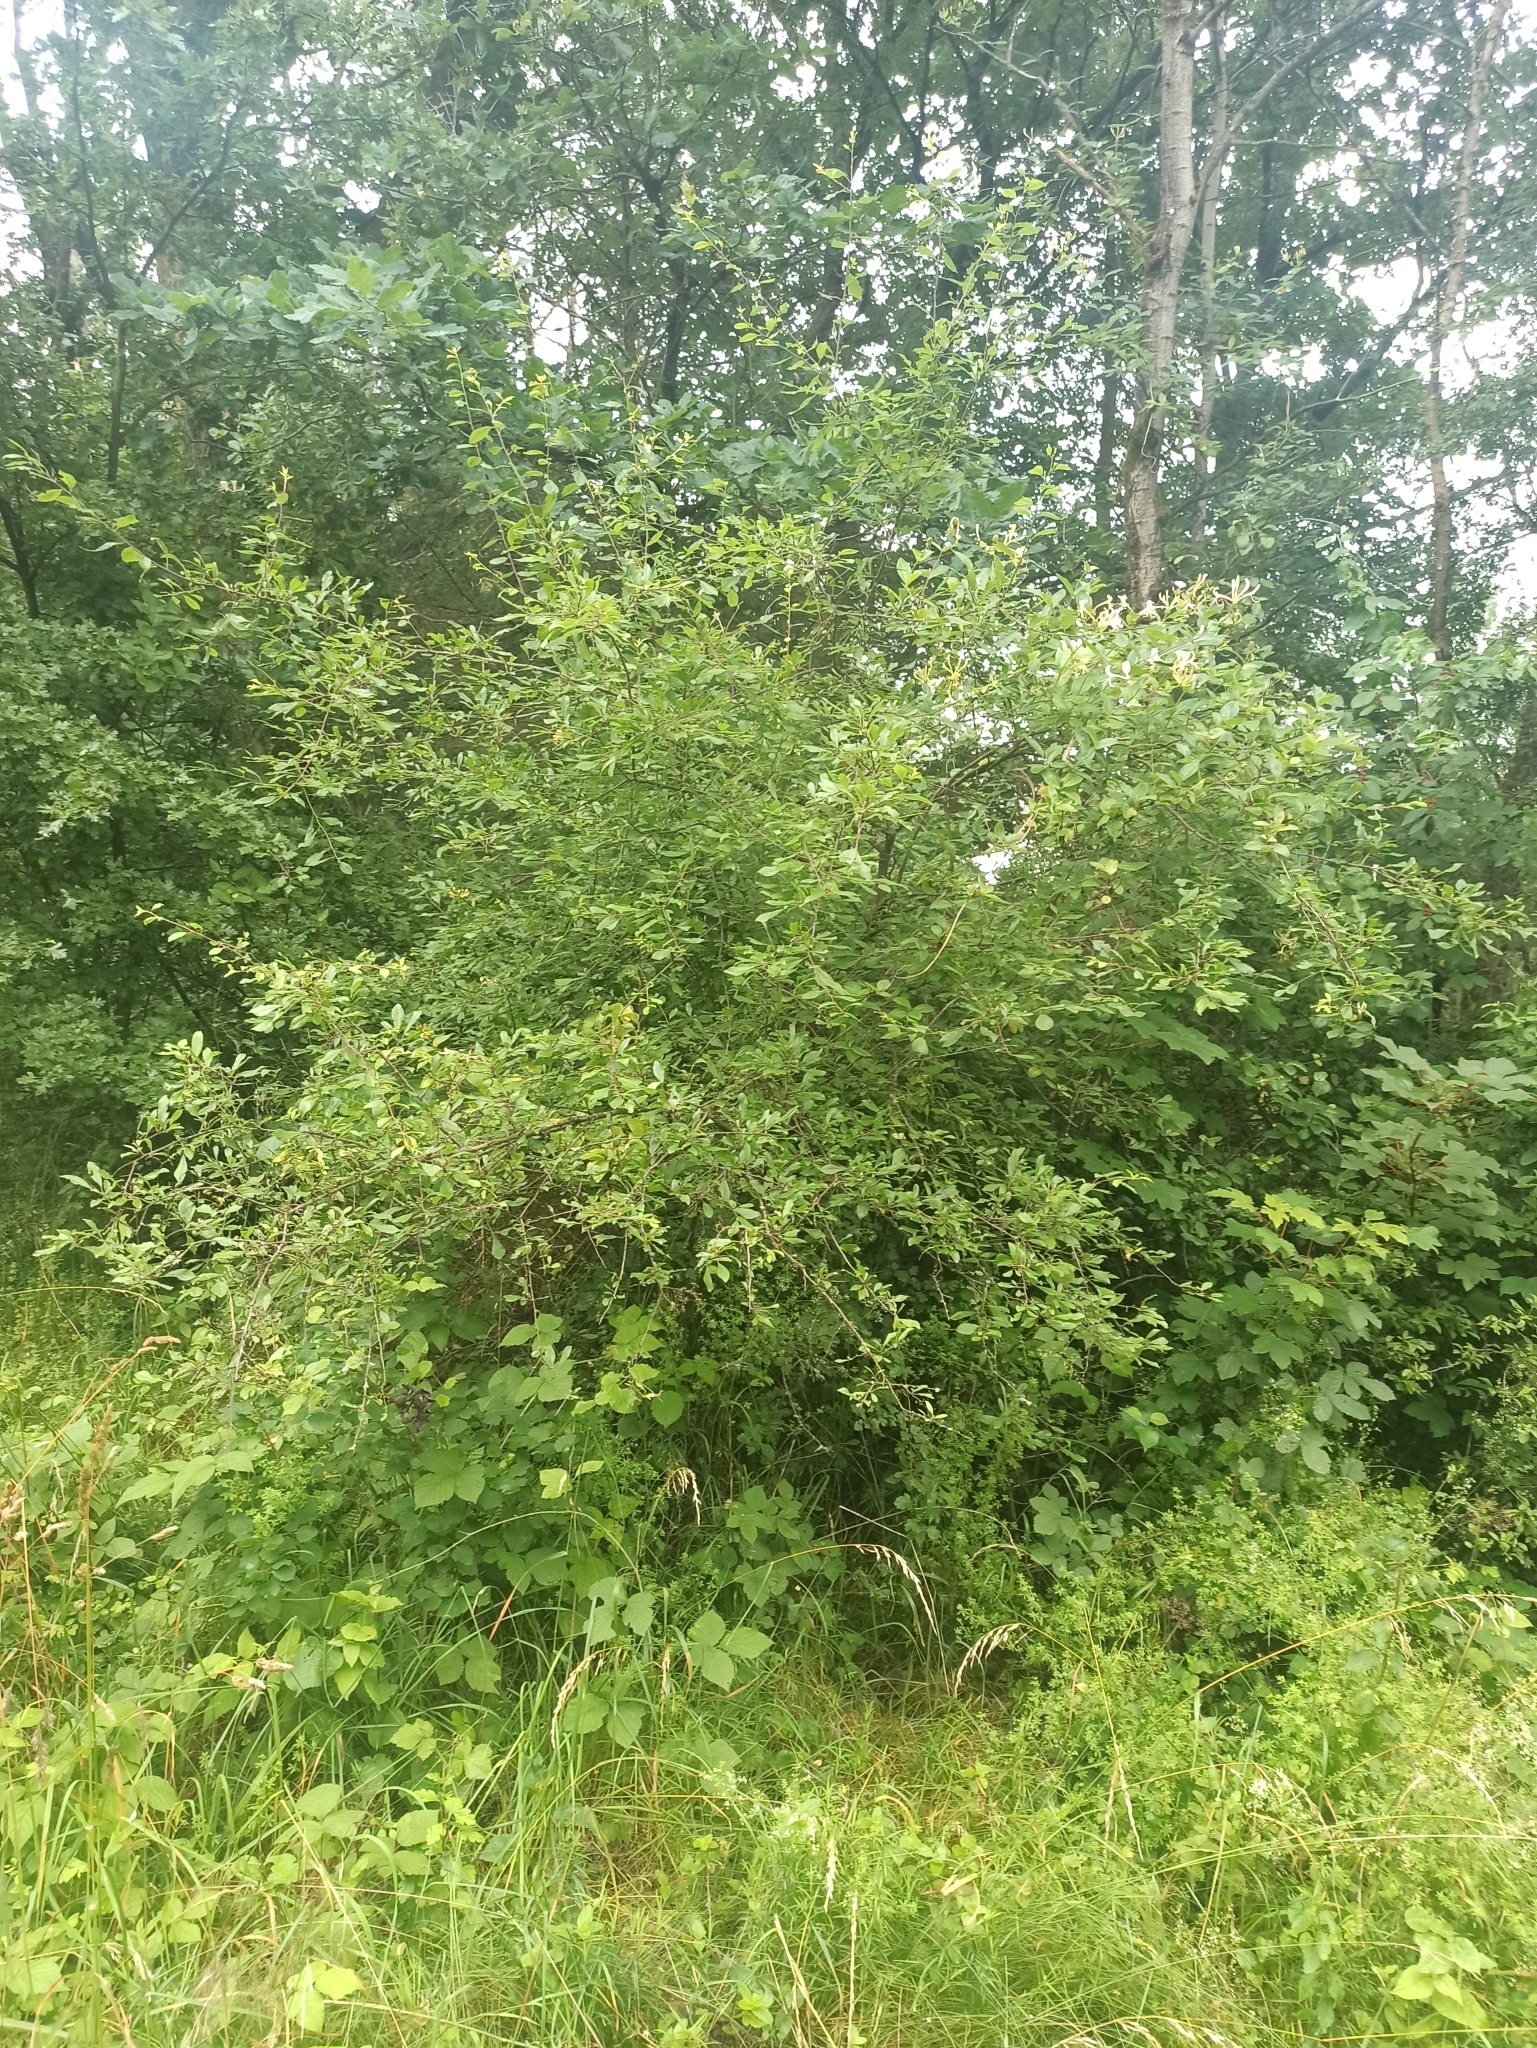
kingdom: Plantae
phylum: Tracheophyta
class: Magnoliopsida
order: Dipsacales
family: Caprifoliaceae
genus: Lonicera
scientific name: Lonicera periclymenum
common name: European honeysuckle
